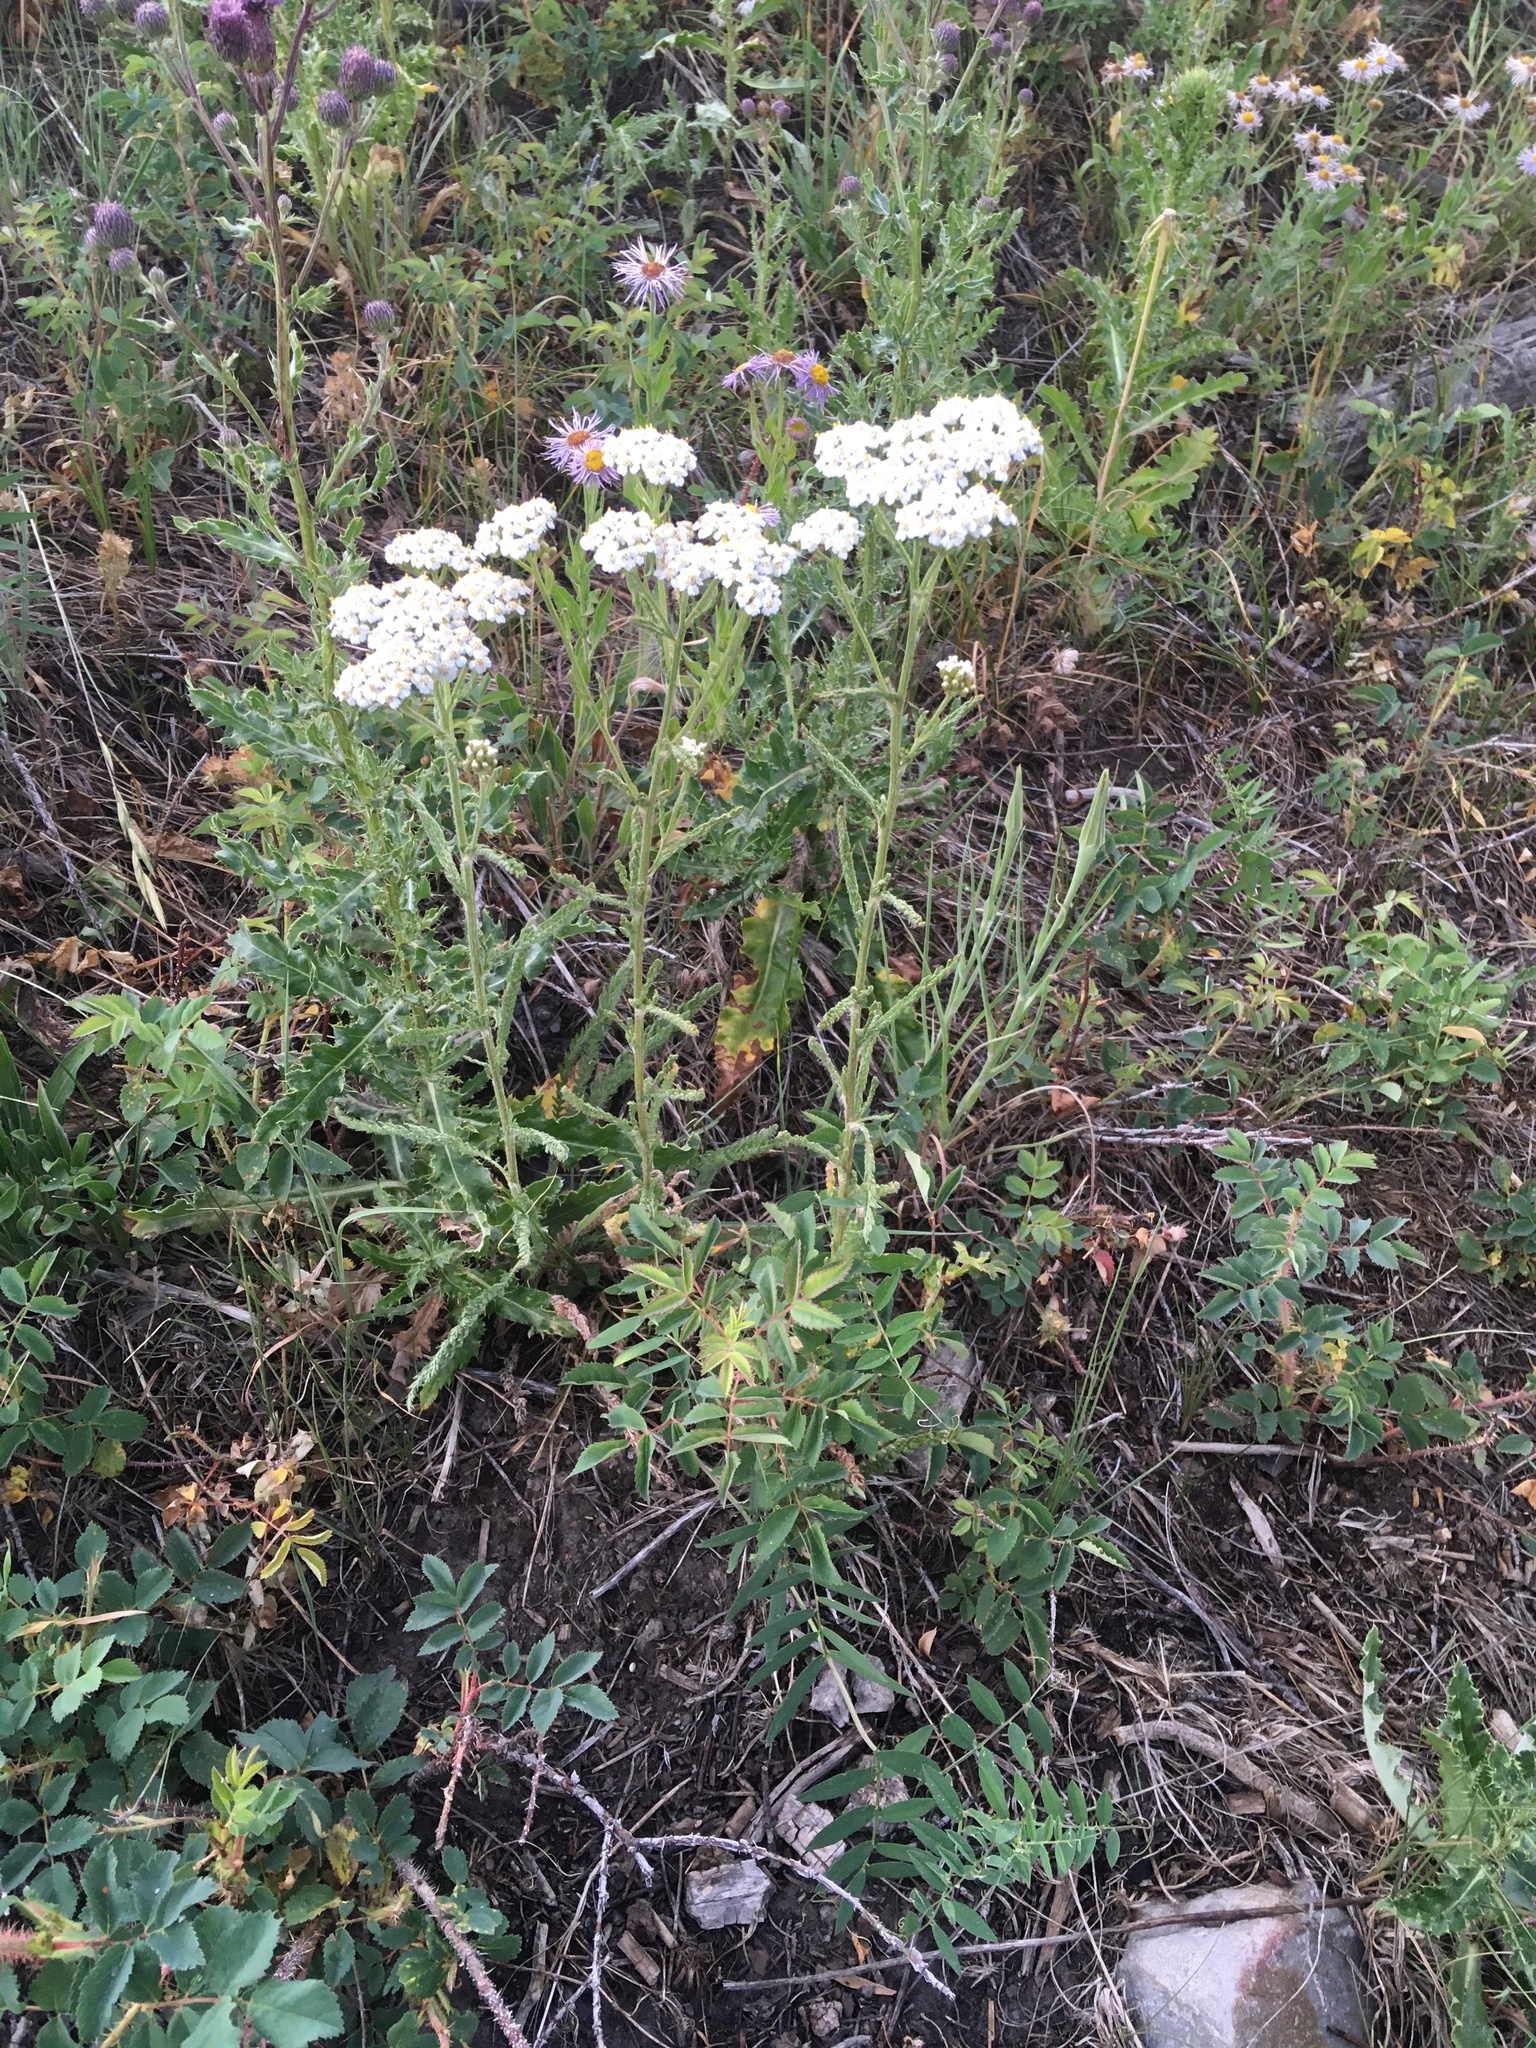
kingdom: Plantae
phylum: Tracheophyta
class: Magnoliopsida
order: Asterales
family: Asteraceae
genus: Achillea
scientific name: Achillea millefolium
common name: Yarrow
